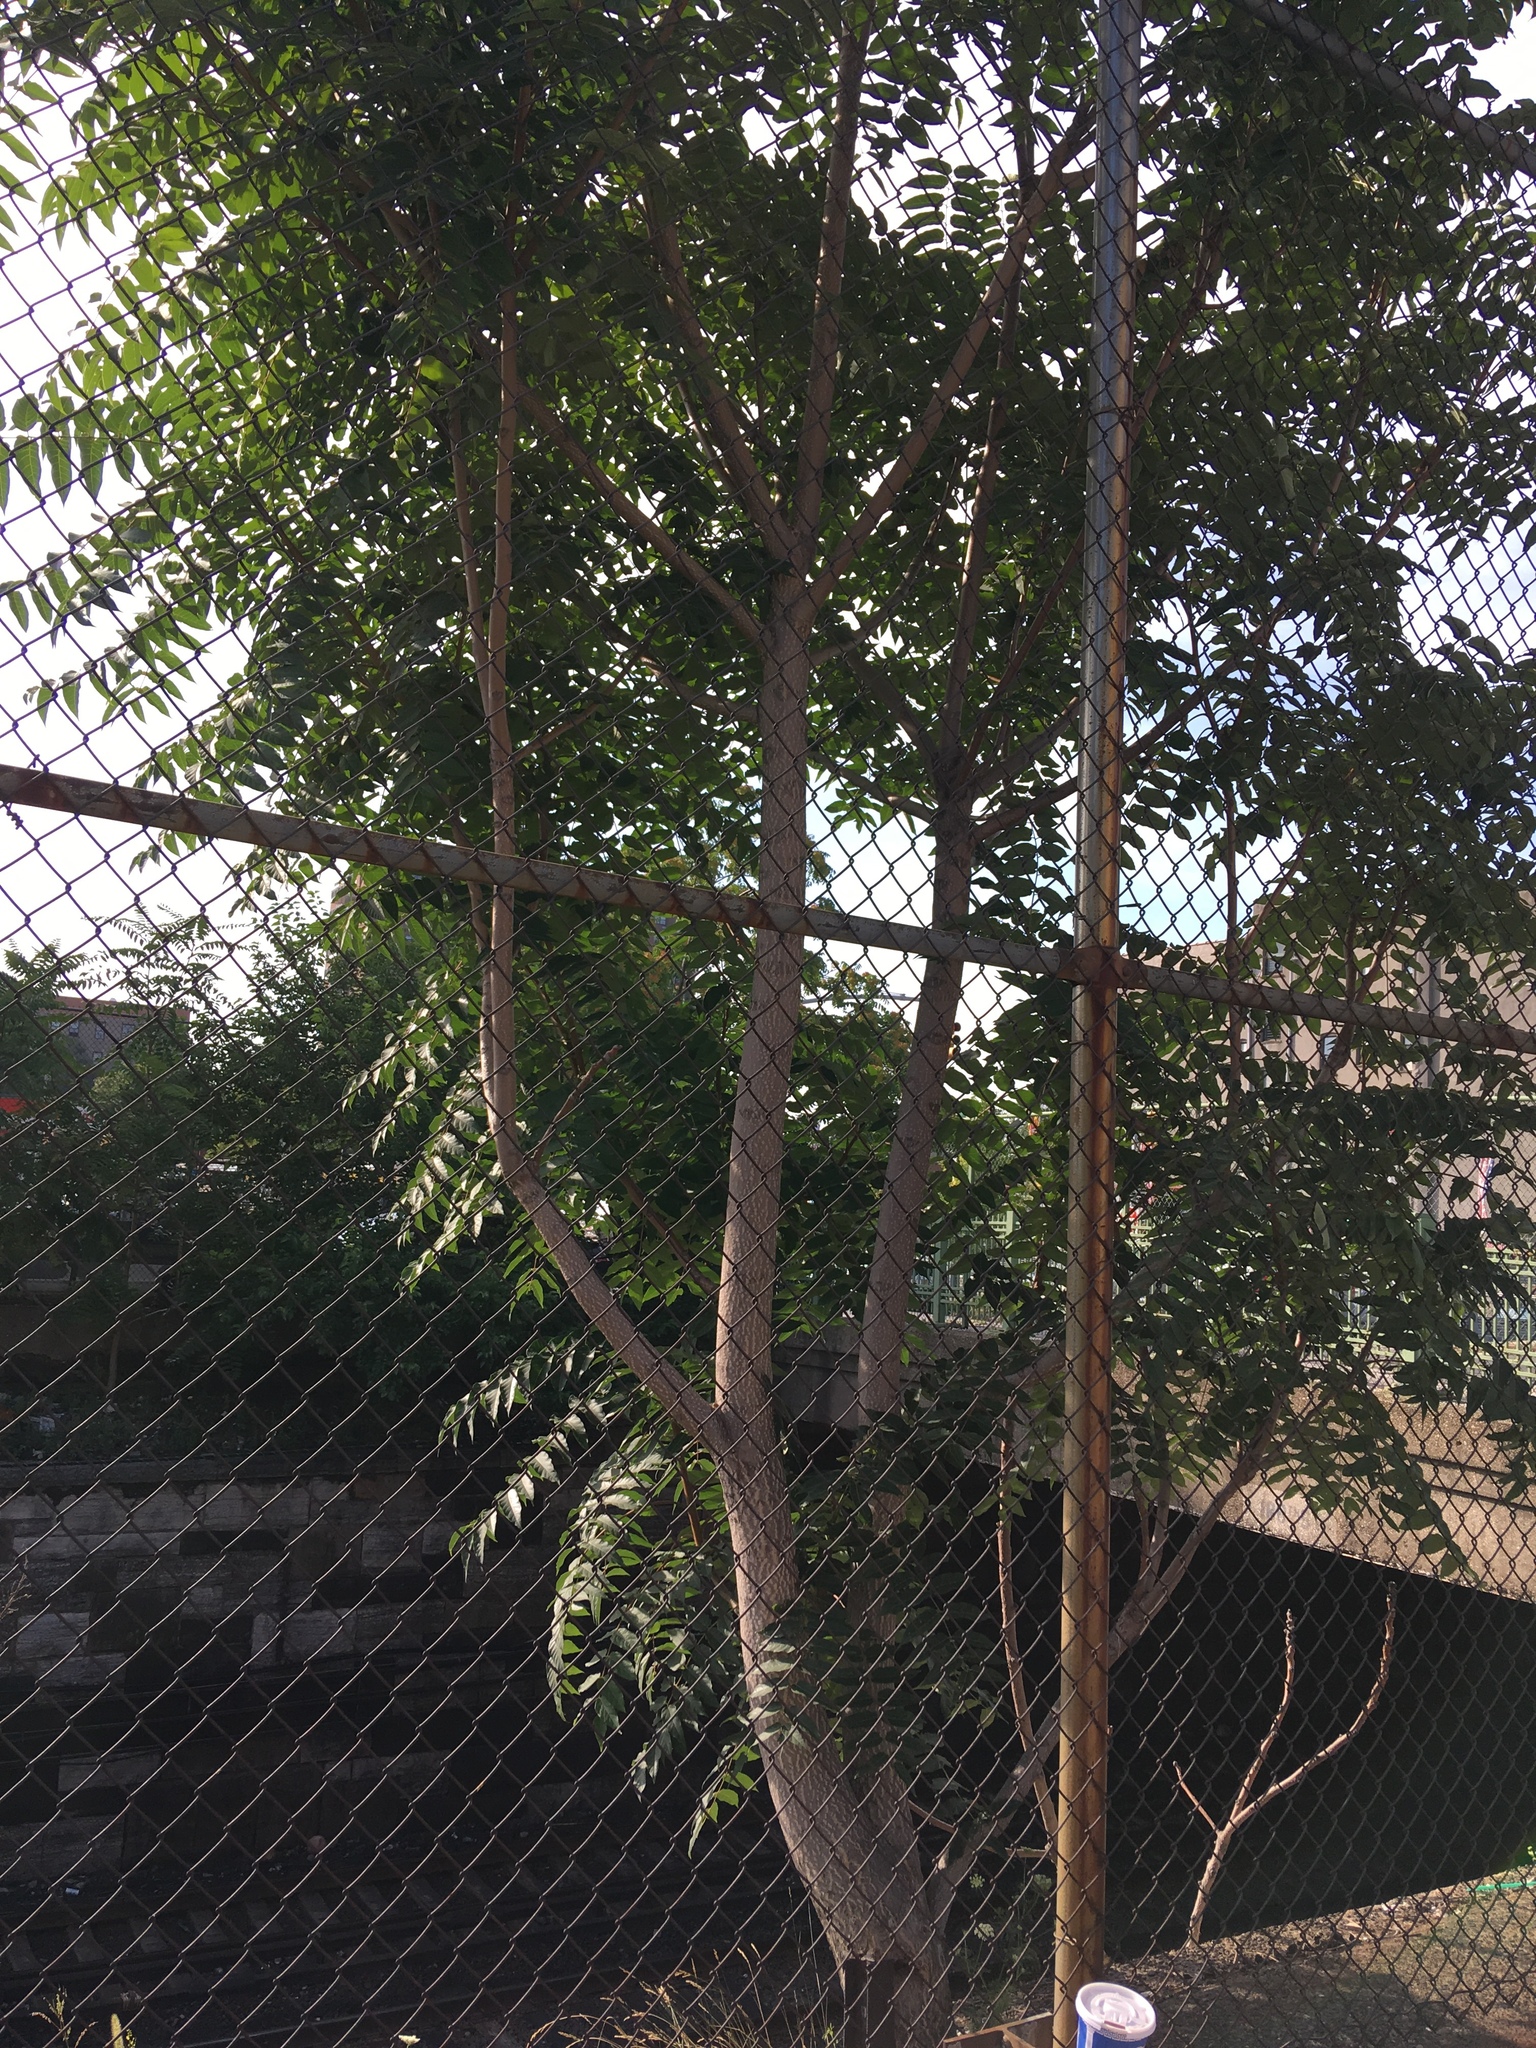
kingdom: Plantae
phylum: Tracheophyta
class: Magnoliopsida
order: Sapindales
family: Simaroubaceae
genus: Ailanthus
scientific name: Ailanthus altissima
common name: Tree-of-heaven
